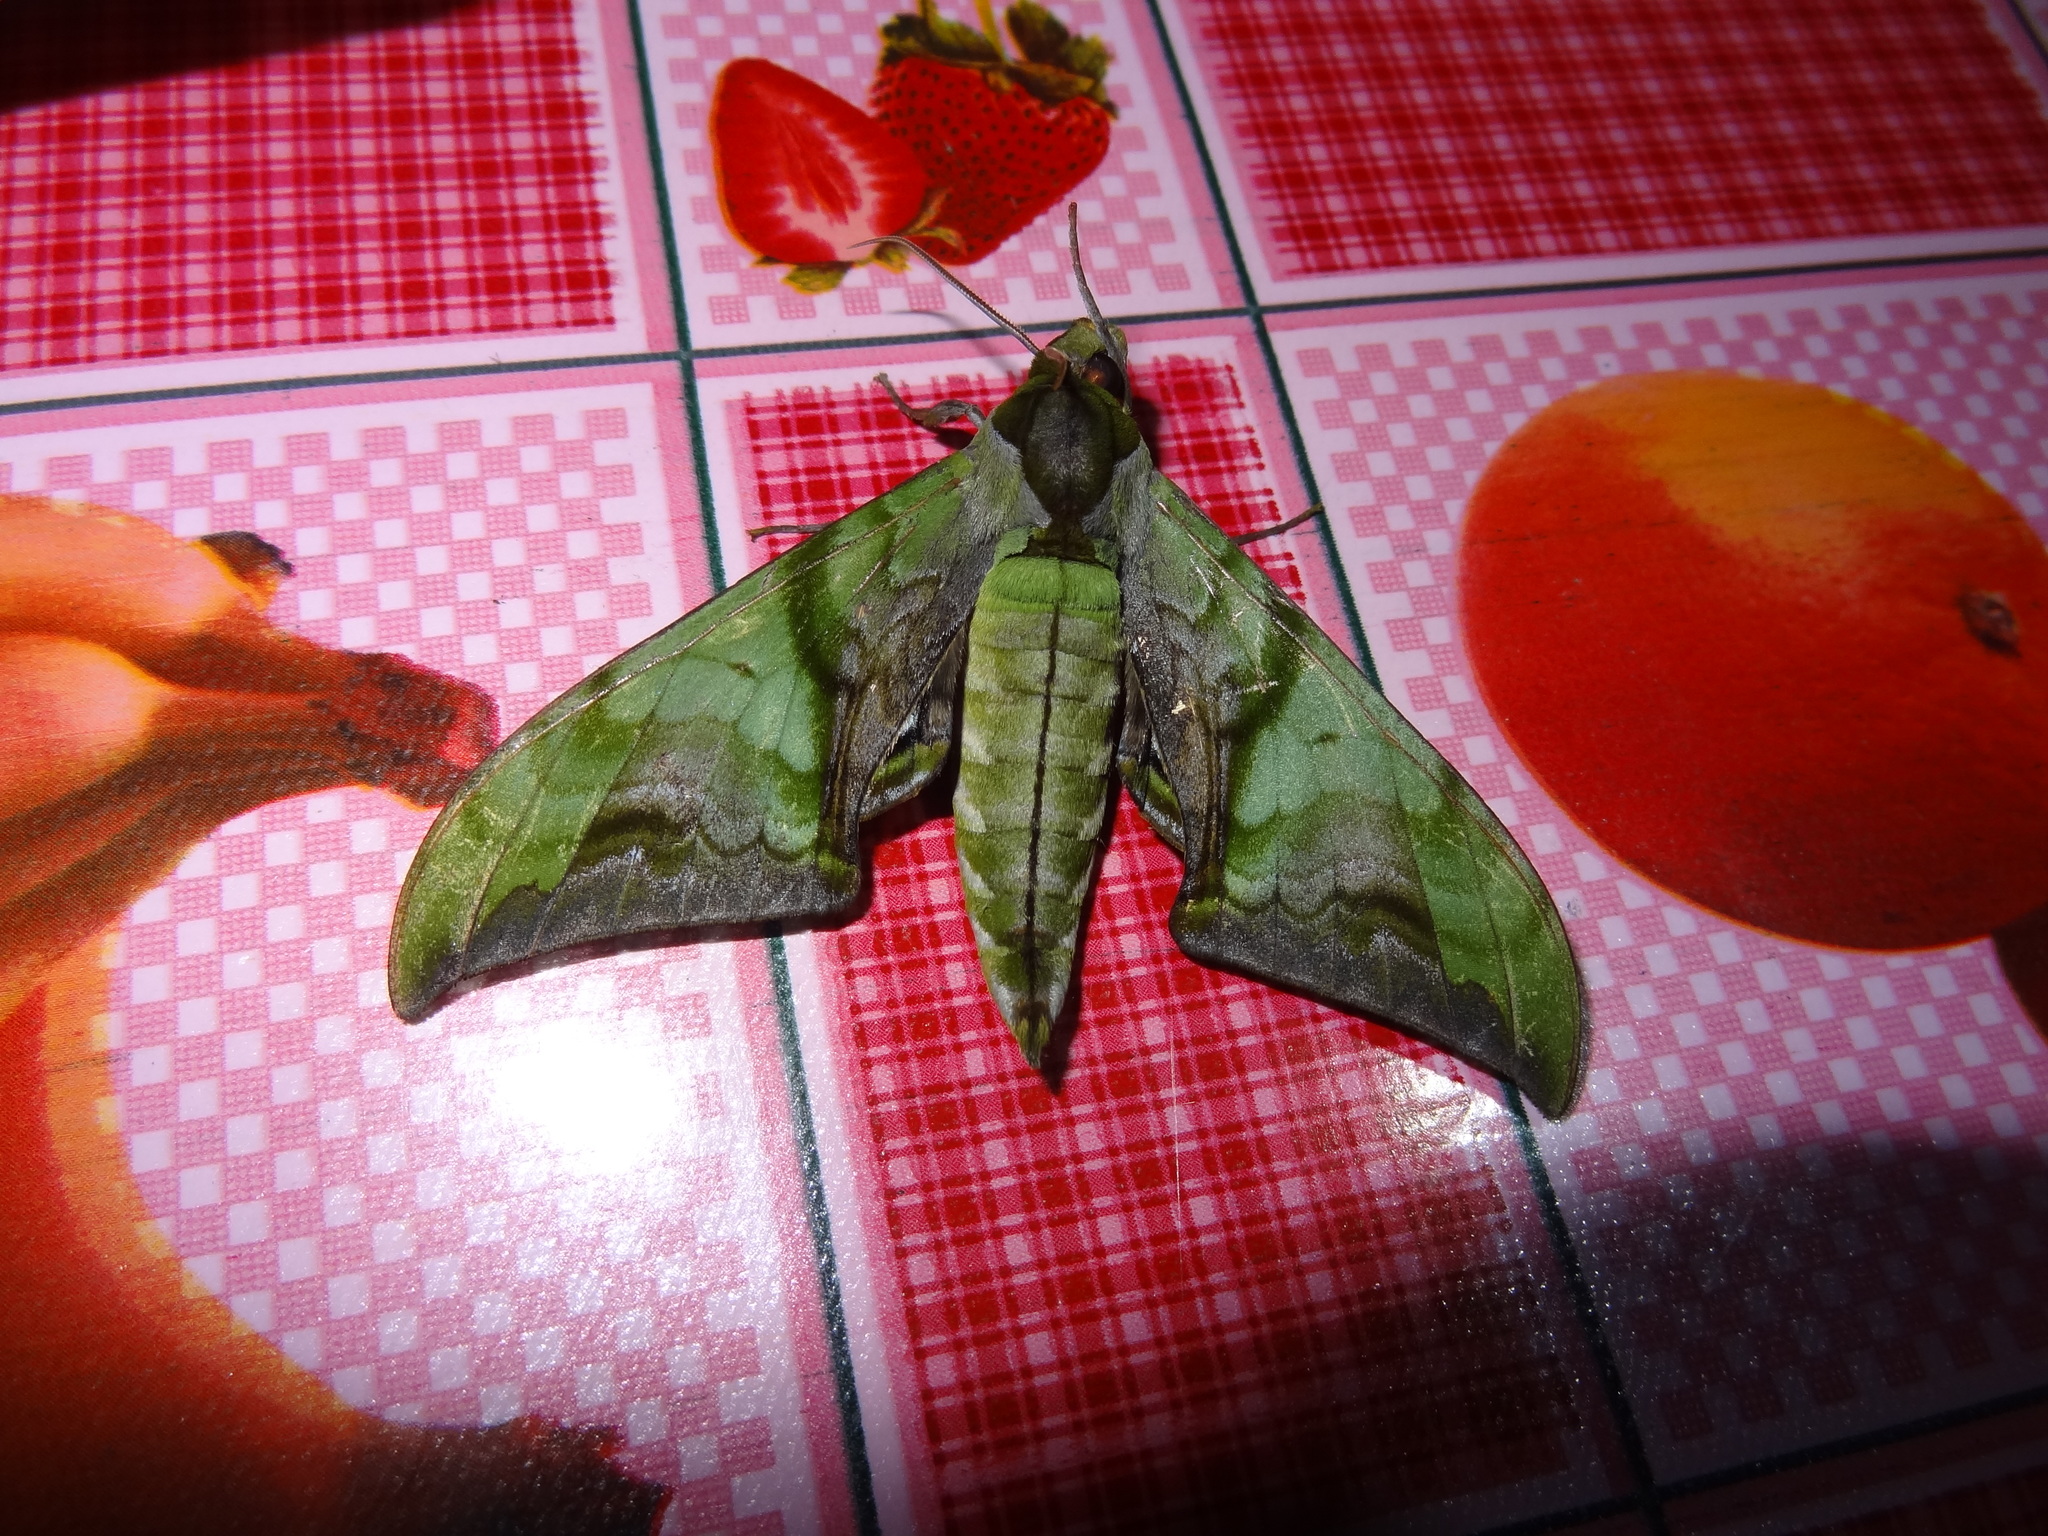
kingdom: Animalia
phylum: Arthropoda
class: Insecta
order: Lepidoptera
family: Sphingidae
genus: Callambulyx
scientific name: Callambulyx junonia
